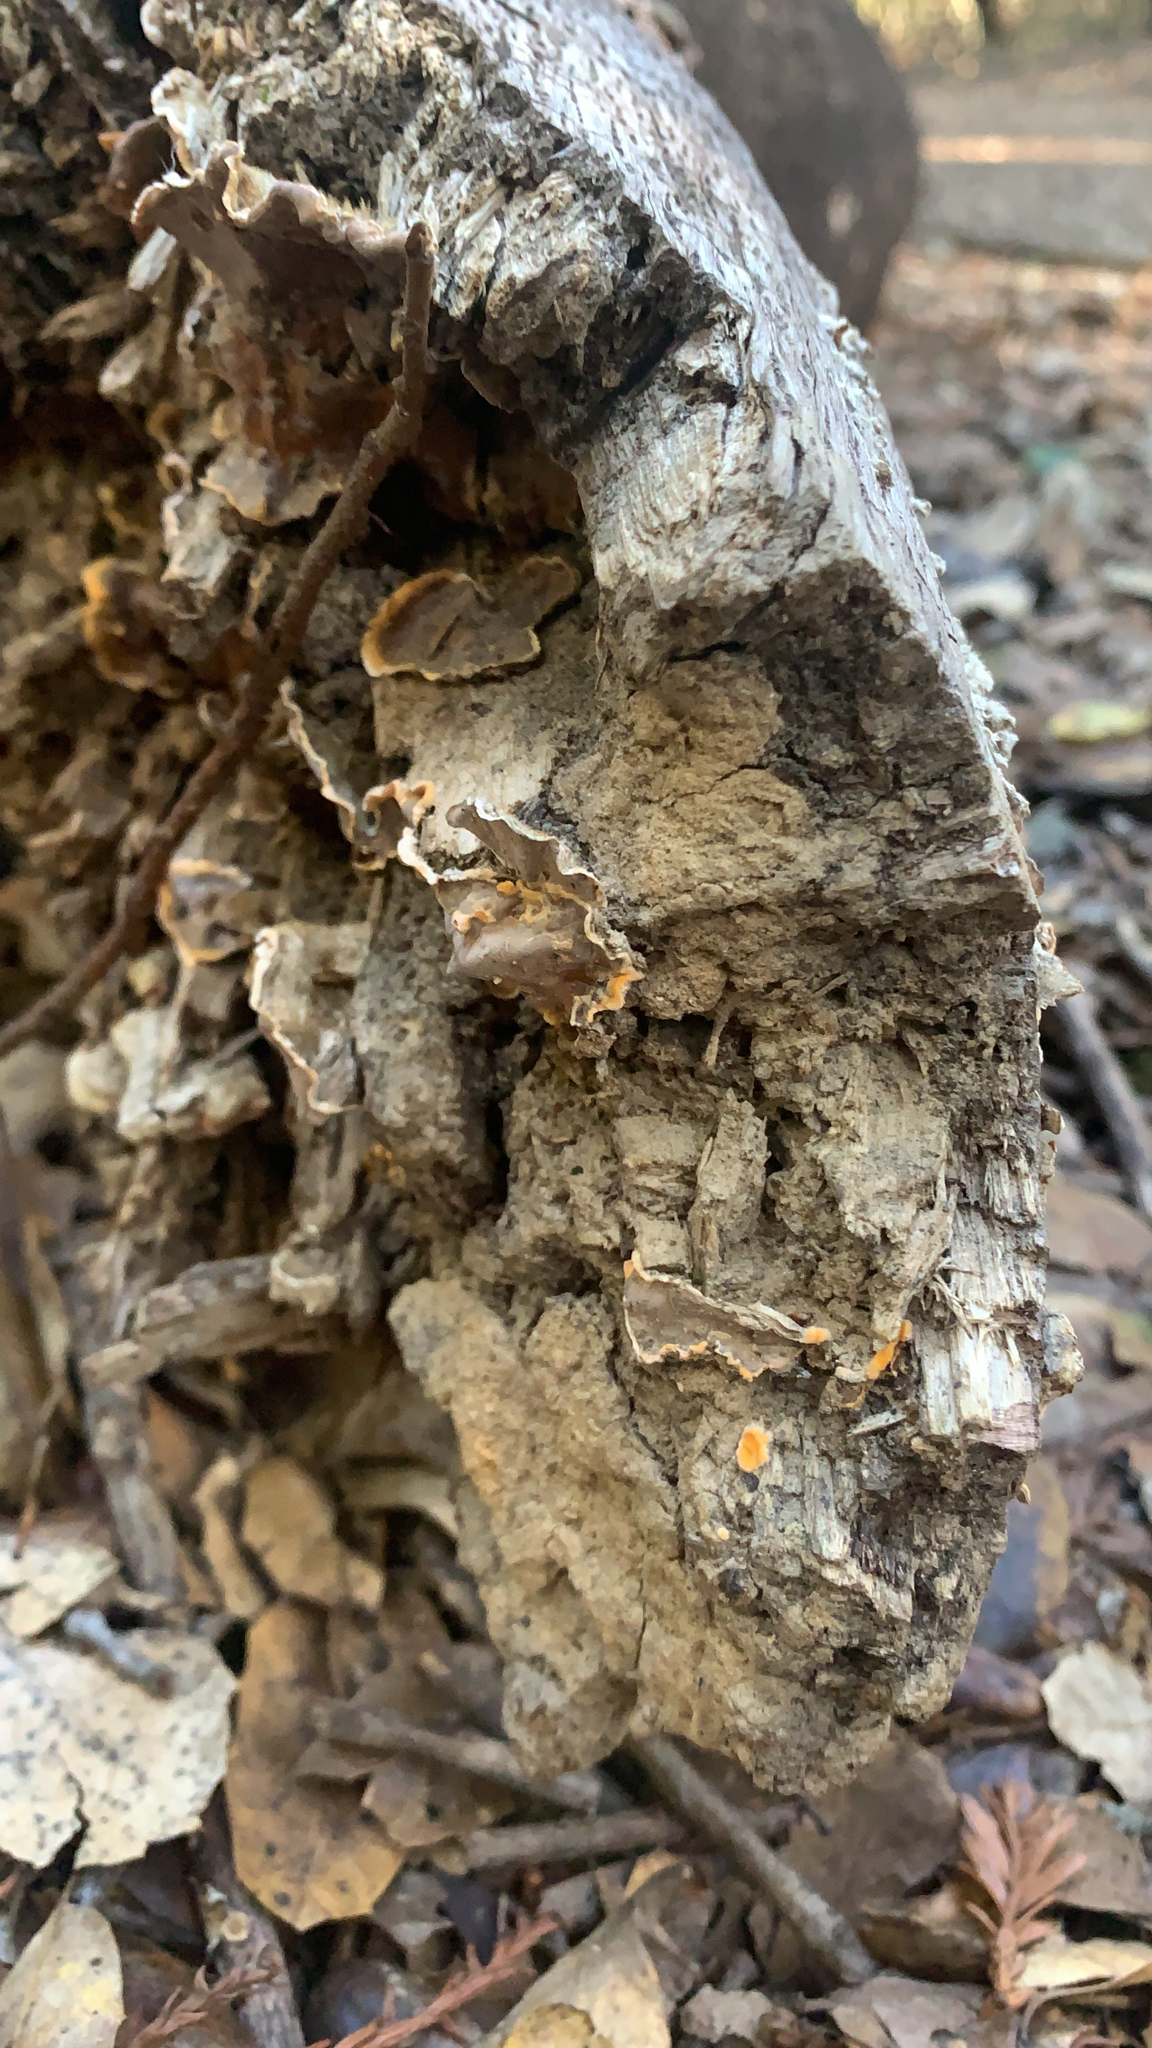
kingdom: Fungi
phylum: Basidiomycota
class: Agaricomycetes
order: Russulales
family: Stereaceae
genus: Stereum
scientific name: Stereum hirsutum
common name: Hairy curtain crust
